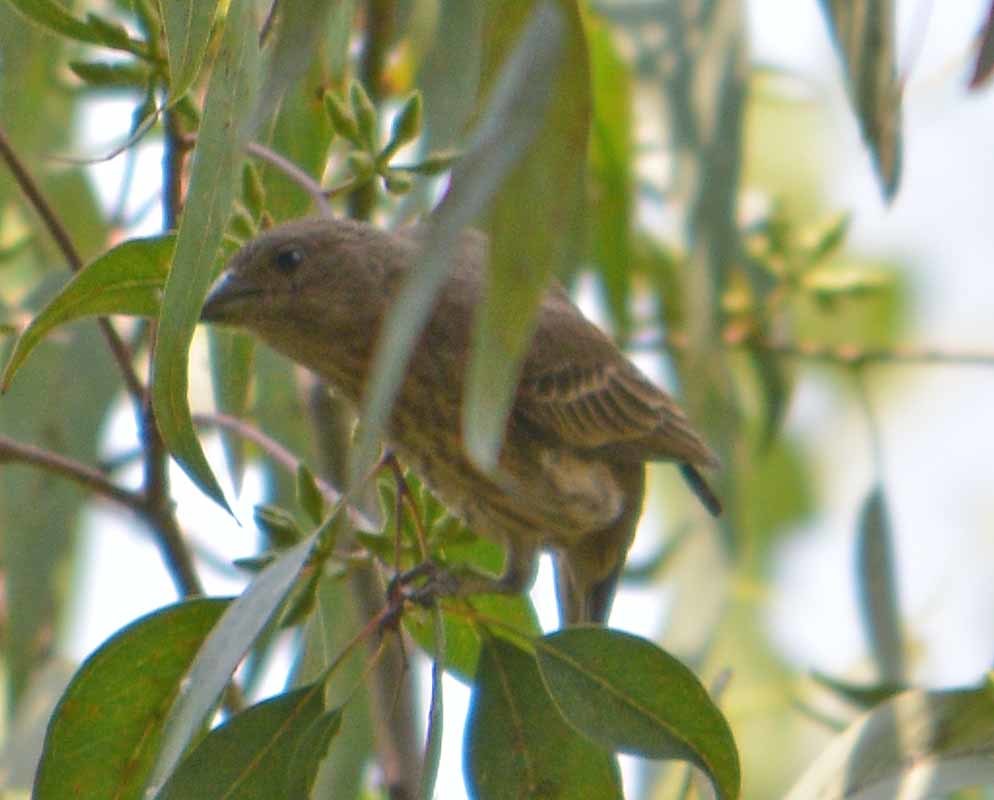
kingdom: Animalia
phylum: Chordata
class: Aves
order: Passeriformes
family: Fringillidae
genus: Haemorhous
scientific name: Haemorhous mexicanus
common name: House finch
